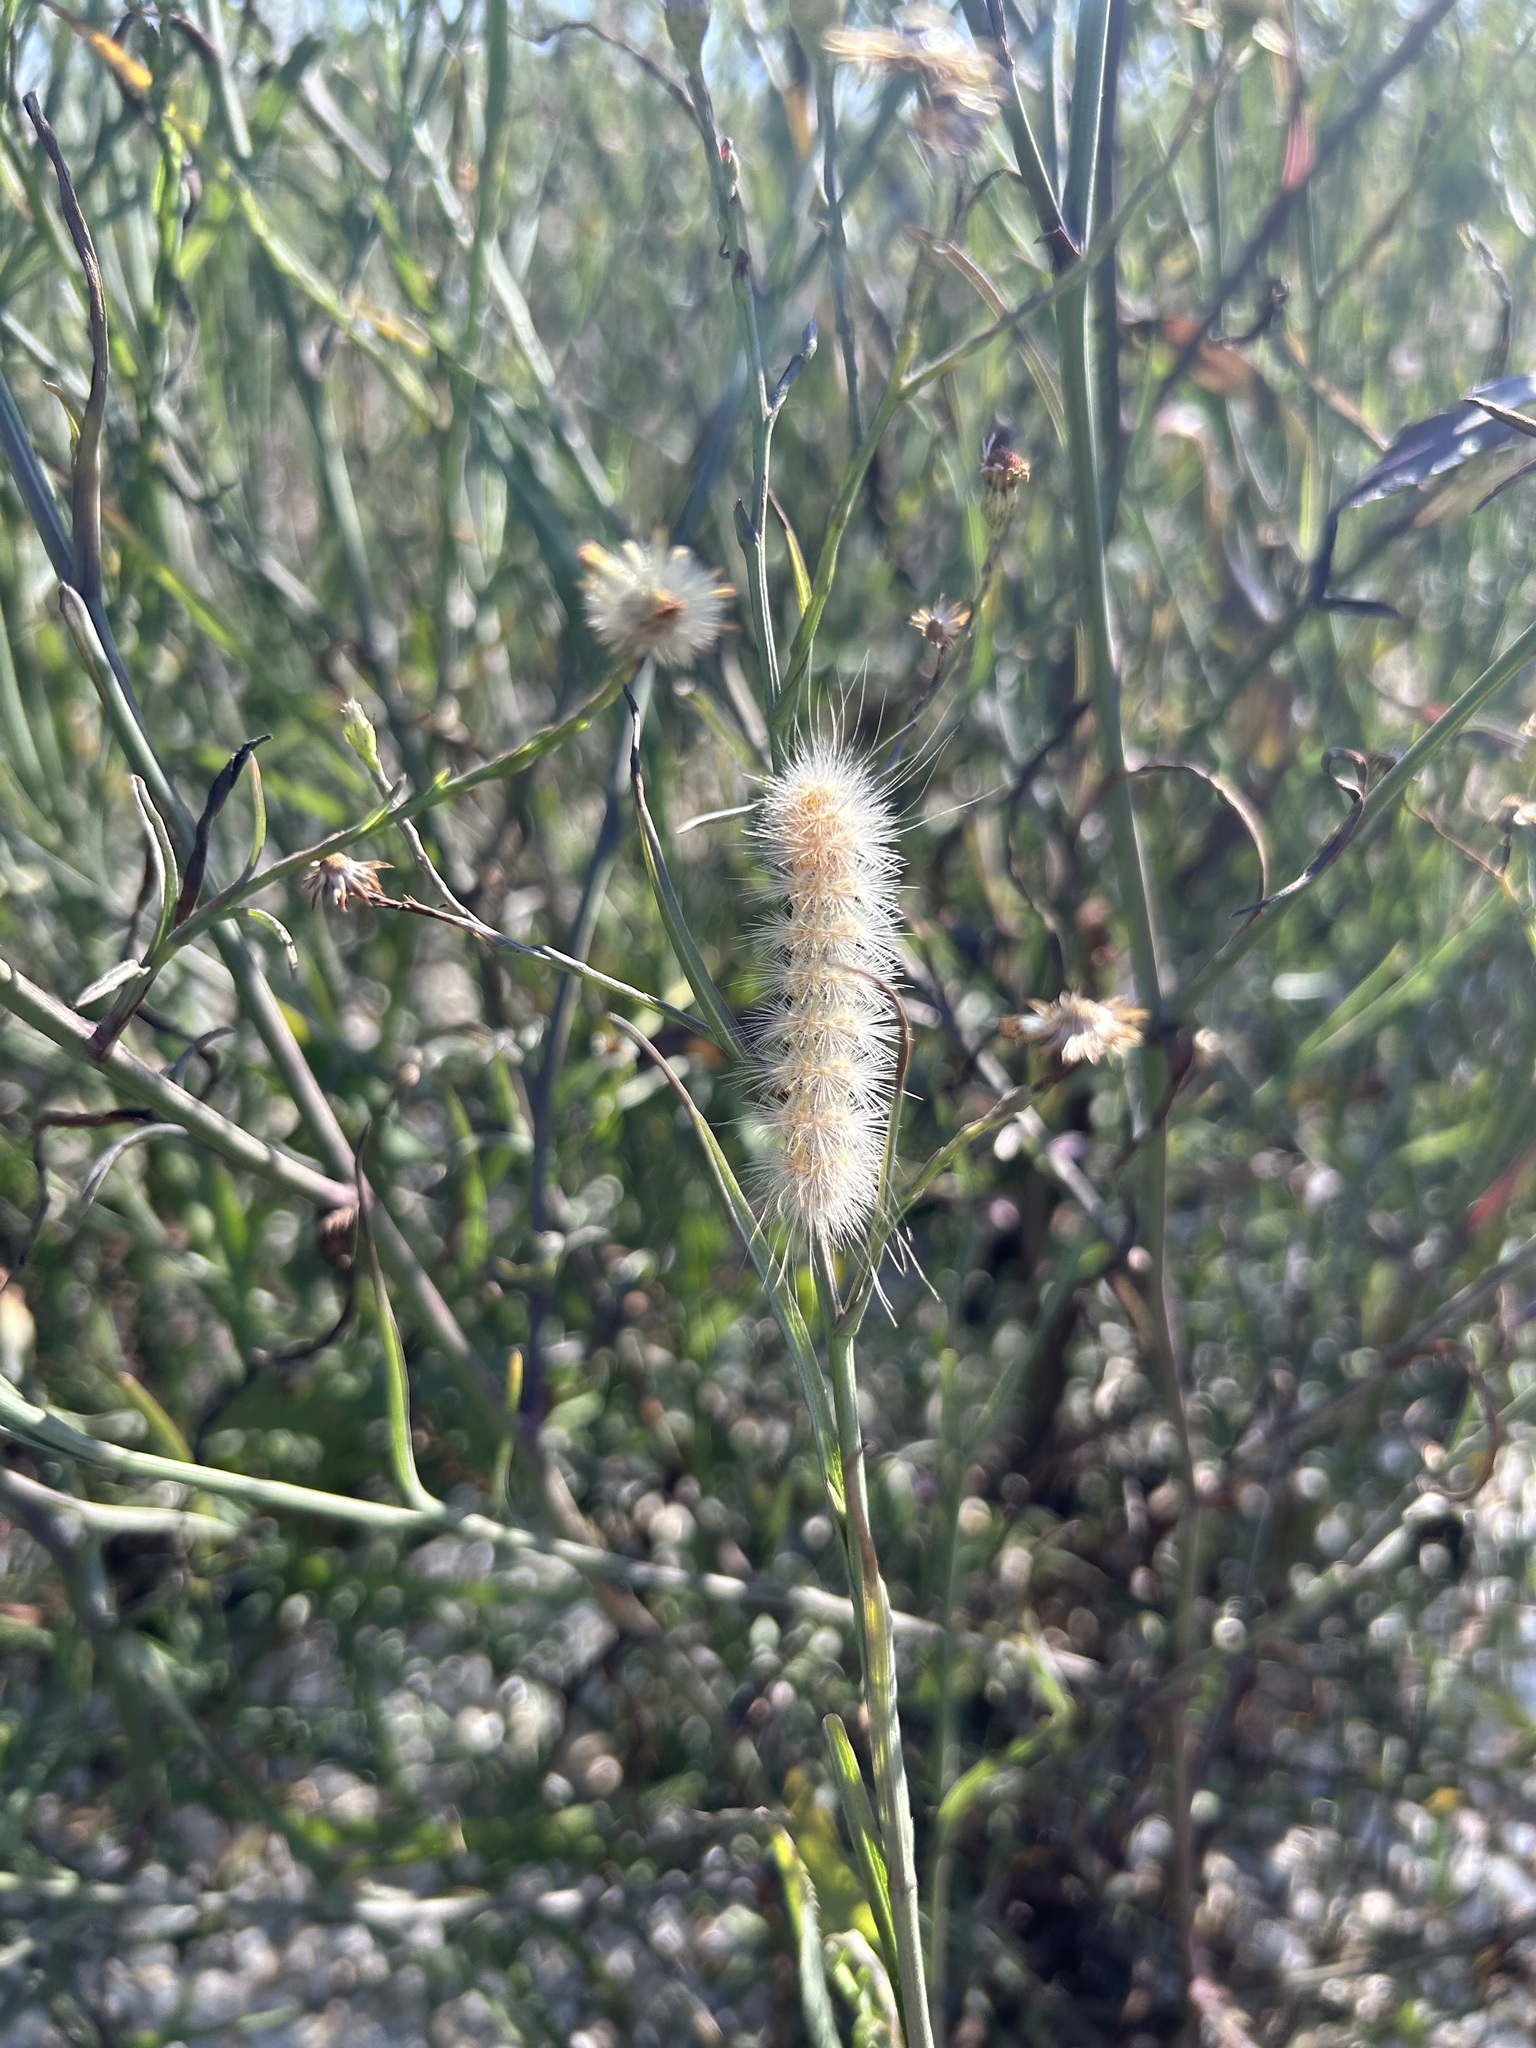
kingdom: Animalia
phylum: Arthropoda
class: Insecta
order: Lepidoptera
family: Erebidae
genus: Estigmene
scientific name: Estigmene acrea
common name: Salt marsh moth
